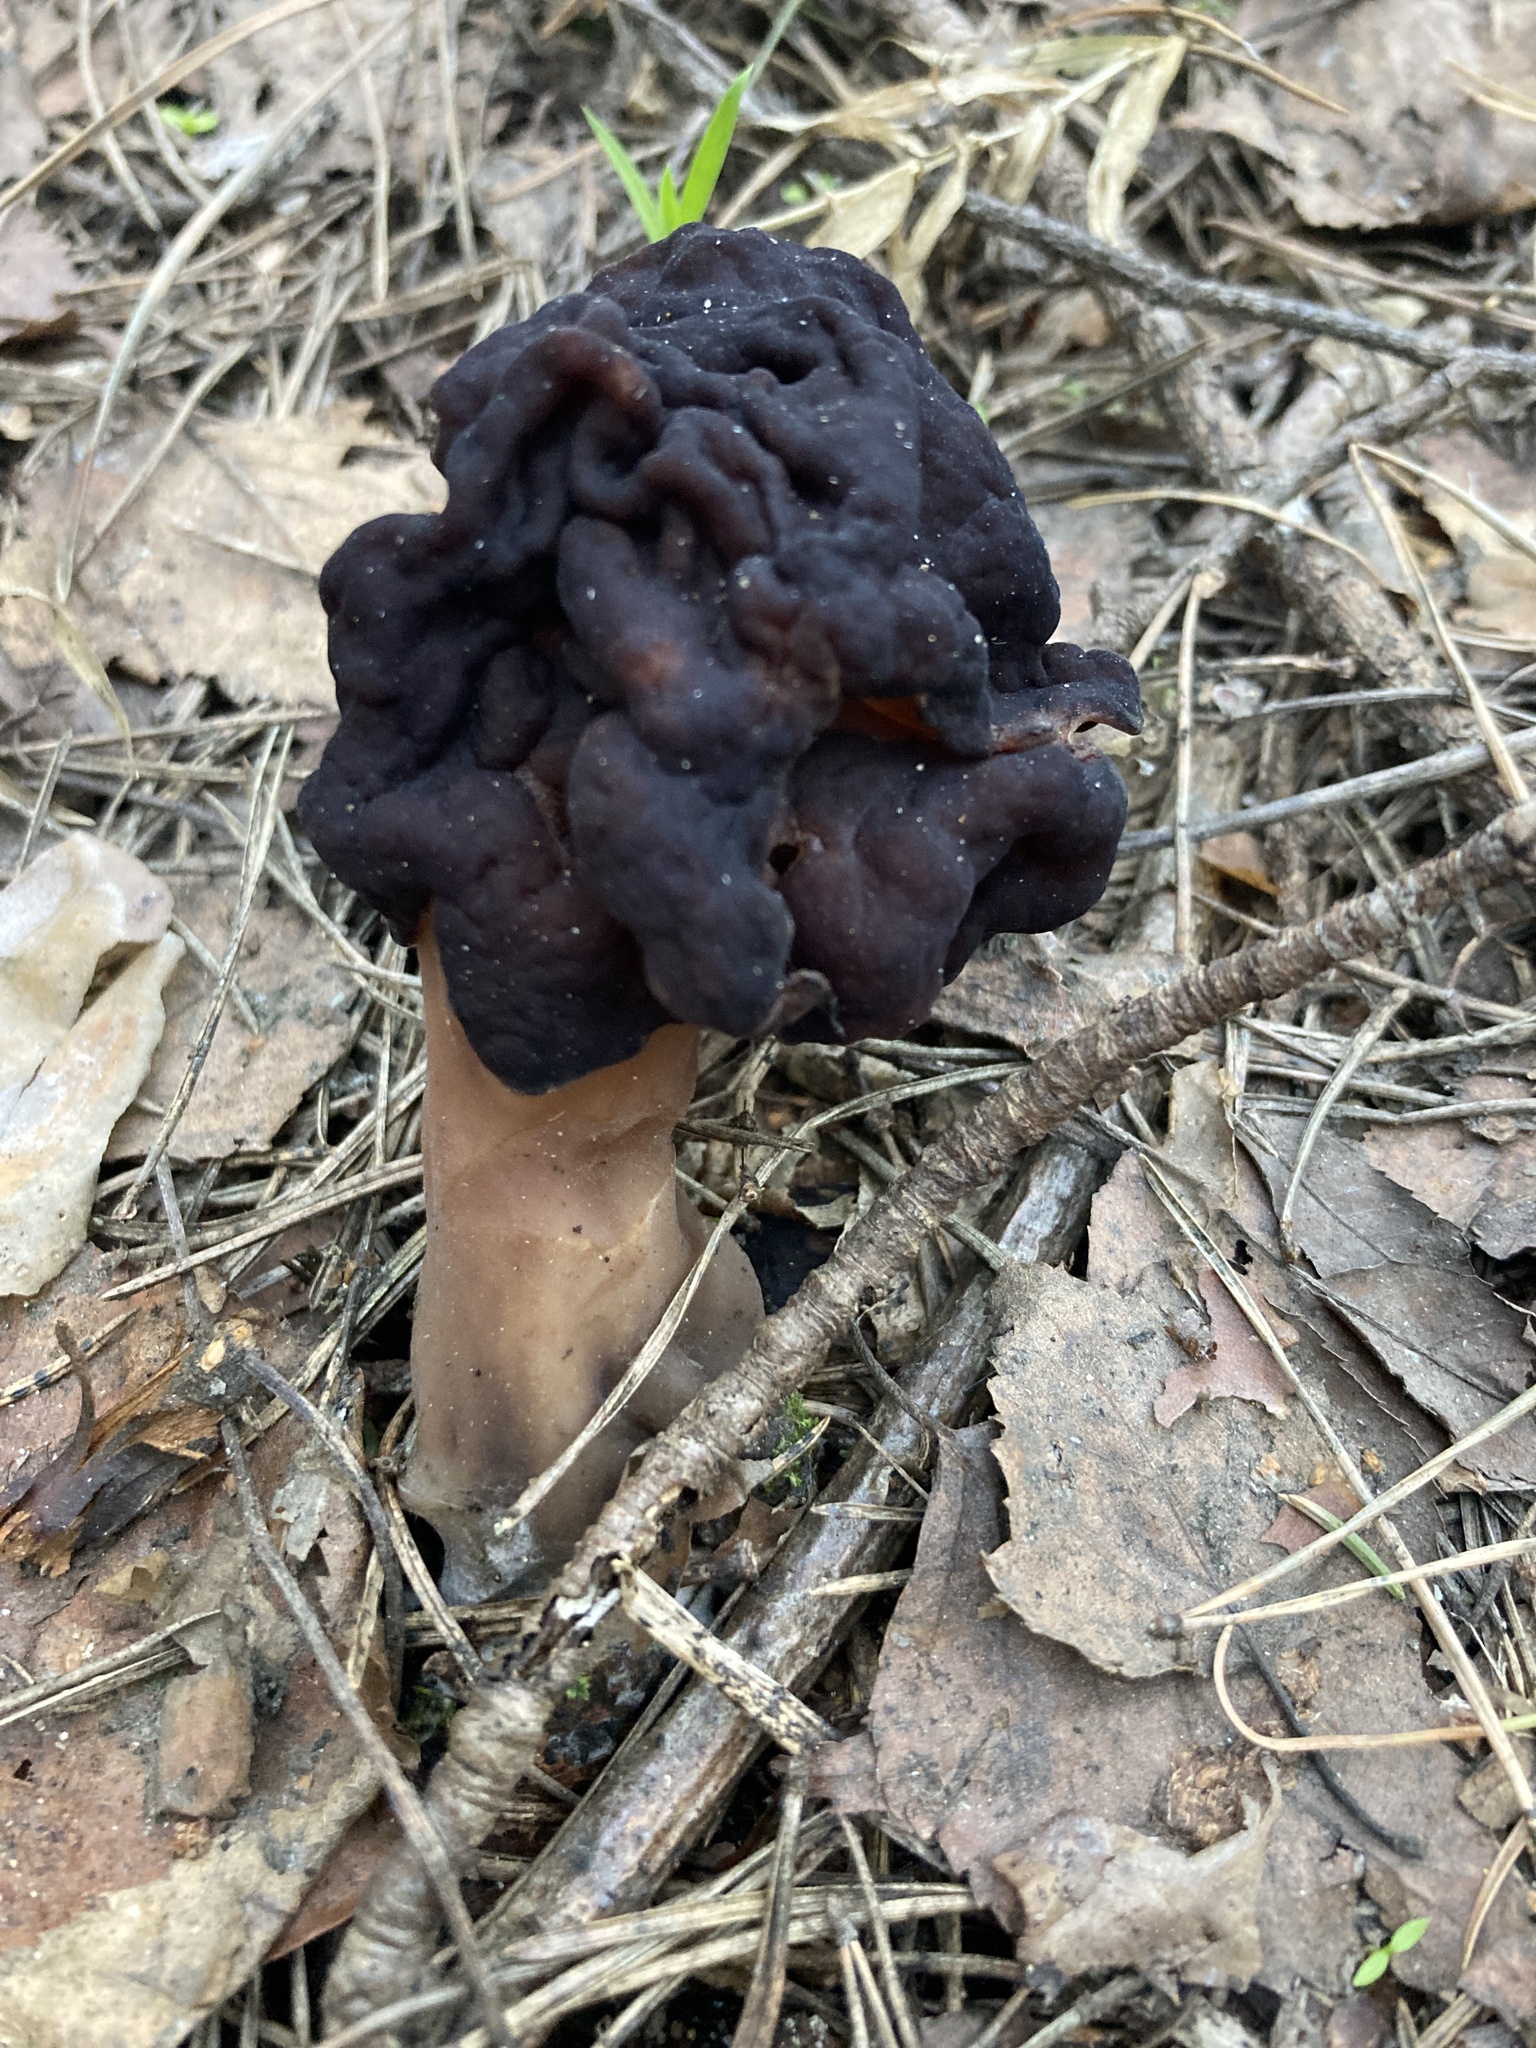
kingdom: Fungi
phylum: Ascomycota
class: Pezizomycetes
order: Pezizales
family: Discinaceae
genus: Gyromitra
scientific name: Gyromitra esculenta
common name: False morel
